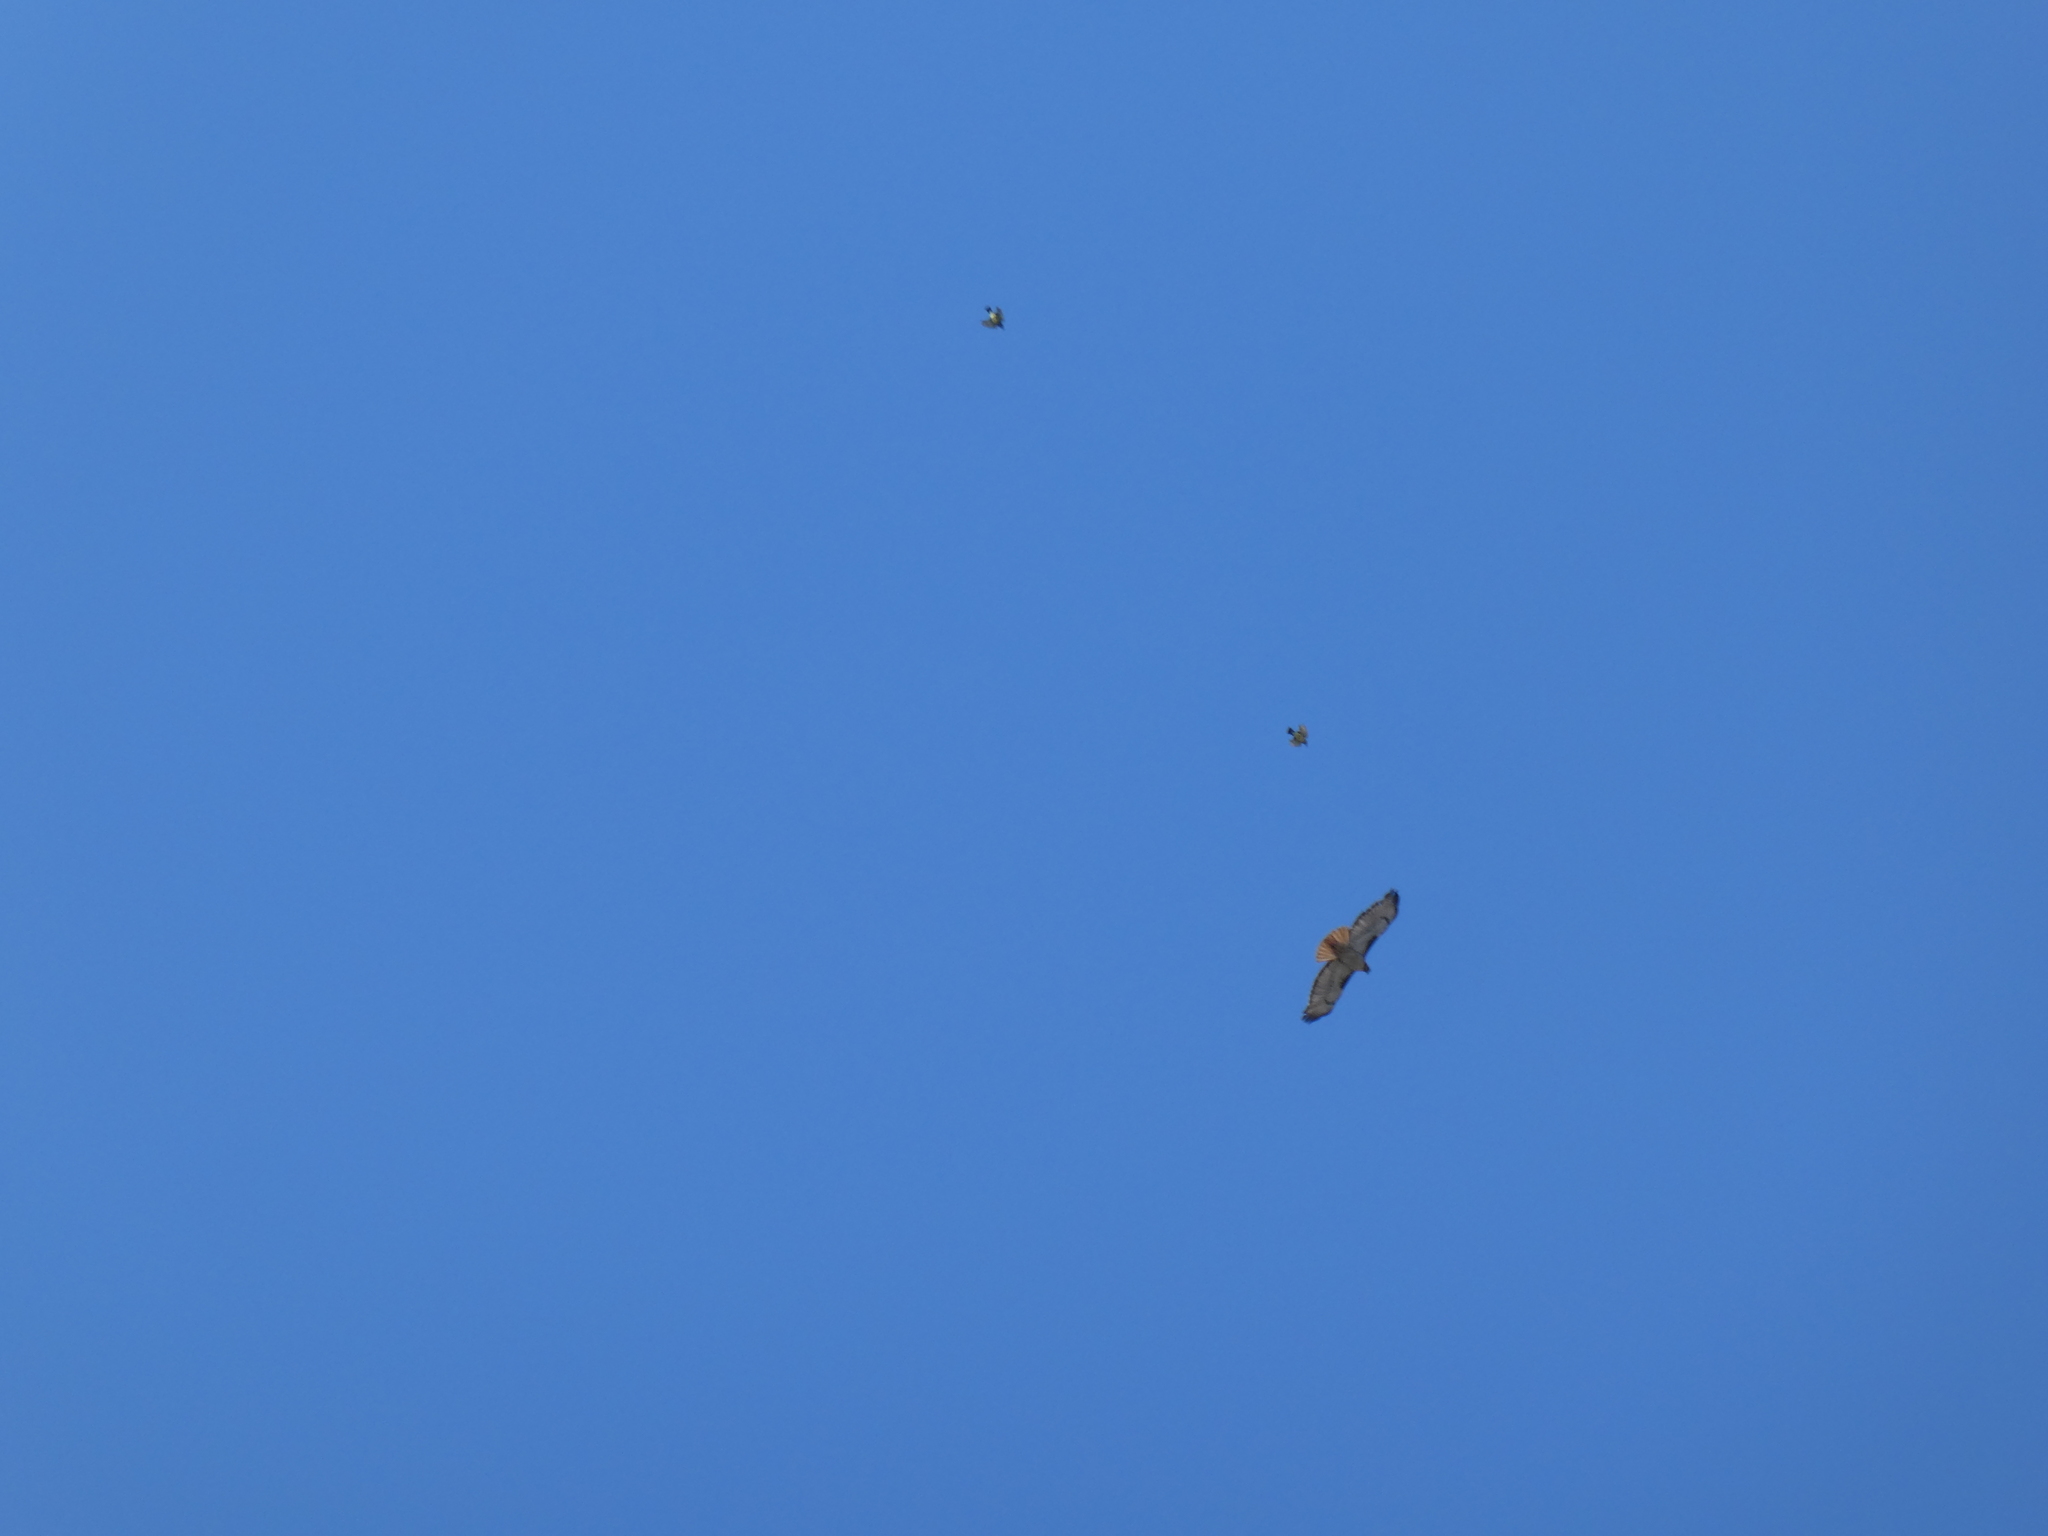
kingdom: Animalia
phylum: Chordata
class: Aves
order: Passeriformes
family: Tyrannidae
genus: Tyrannus
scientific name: Tyrannus
